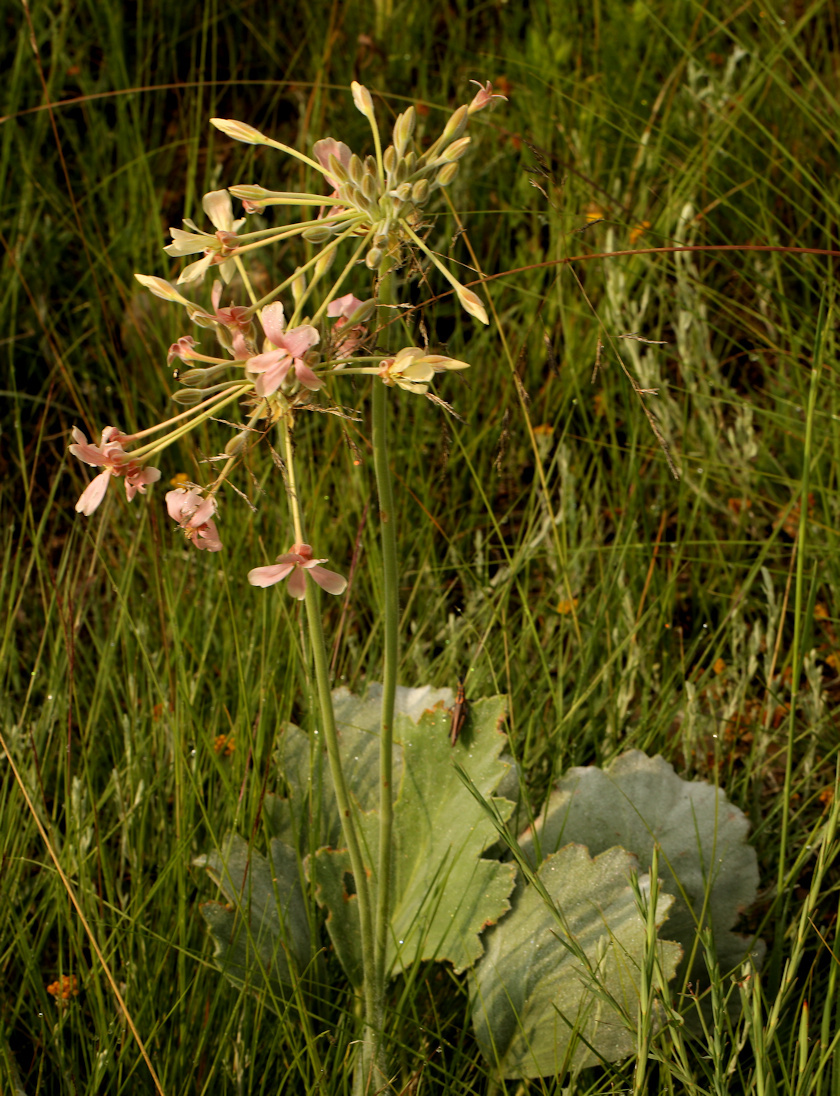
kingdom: Plantae
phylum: Tracheophyta
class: Magnoliopsida
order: Geraniales
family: Geraniaceae
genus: Pelargonium
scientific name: Pelargonium luridum
